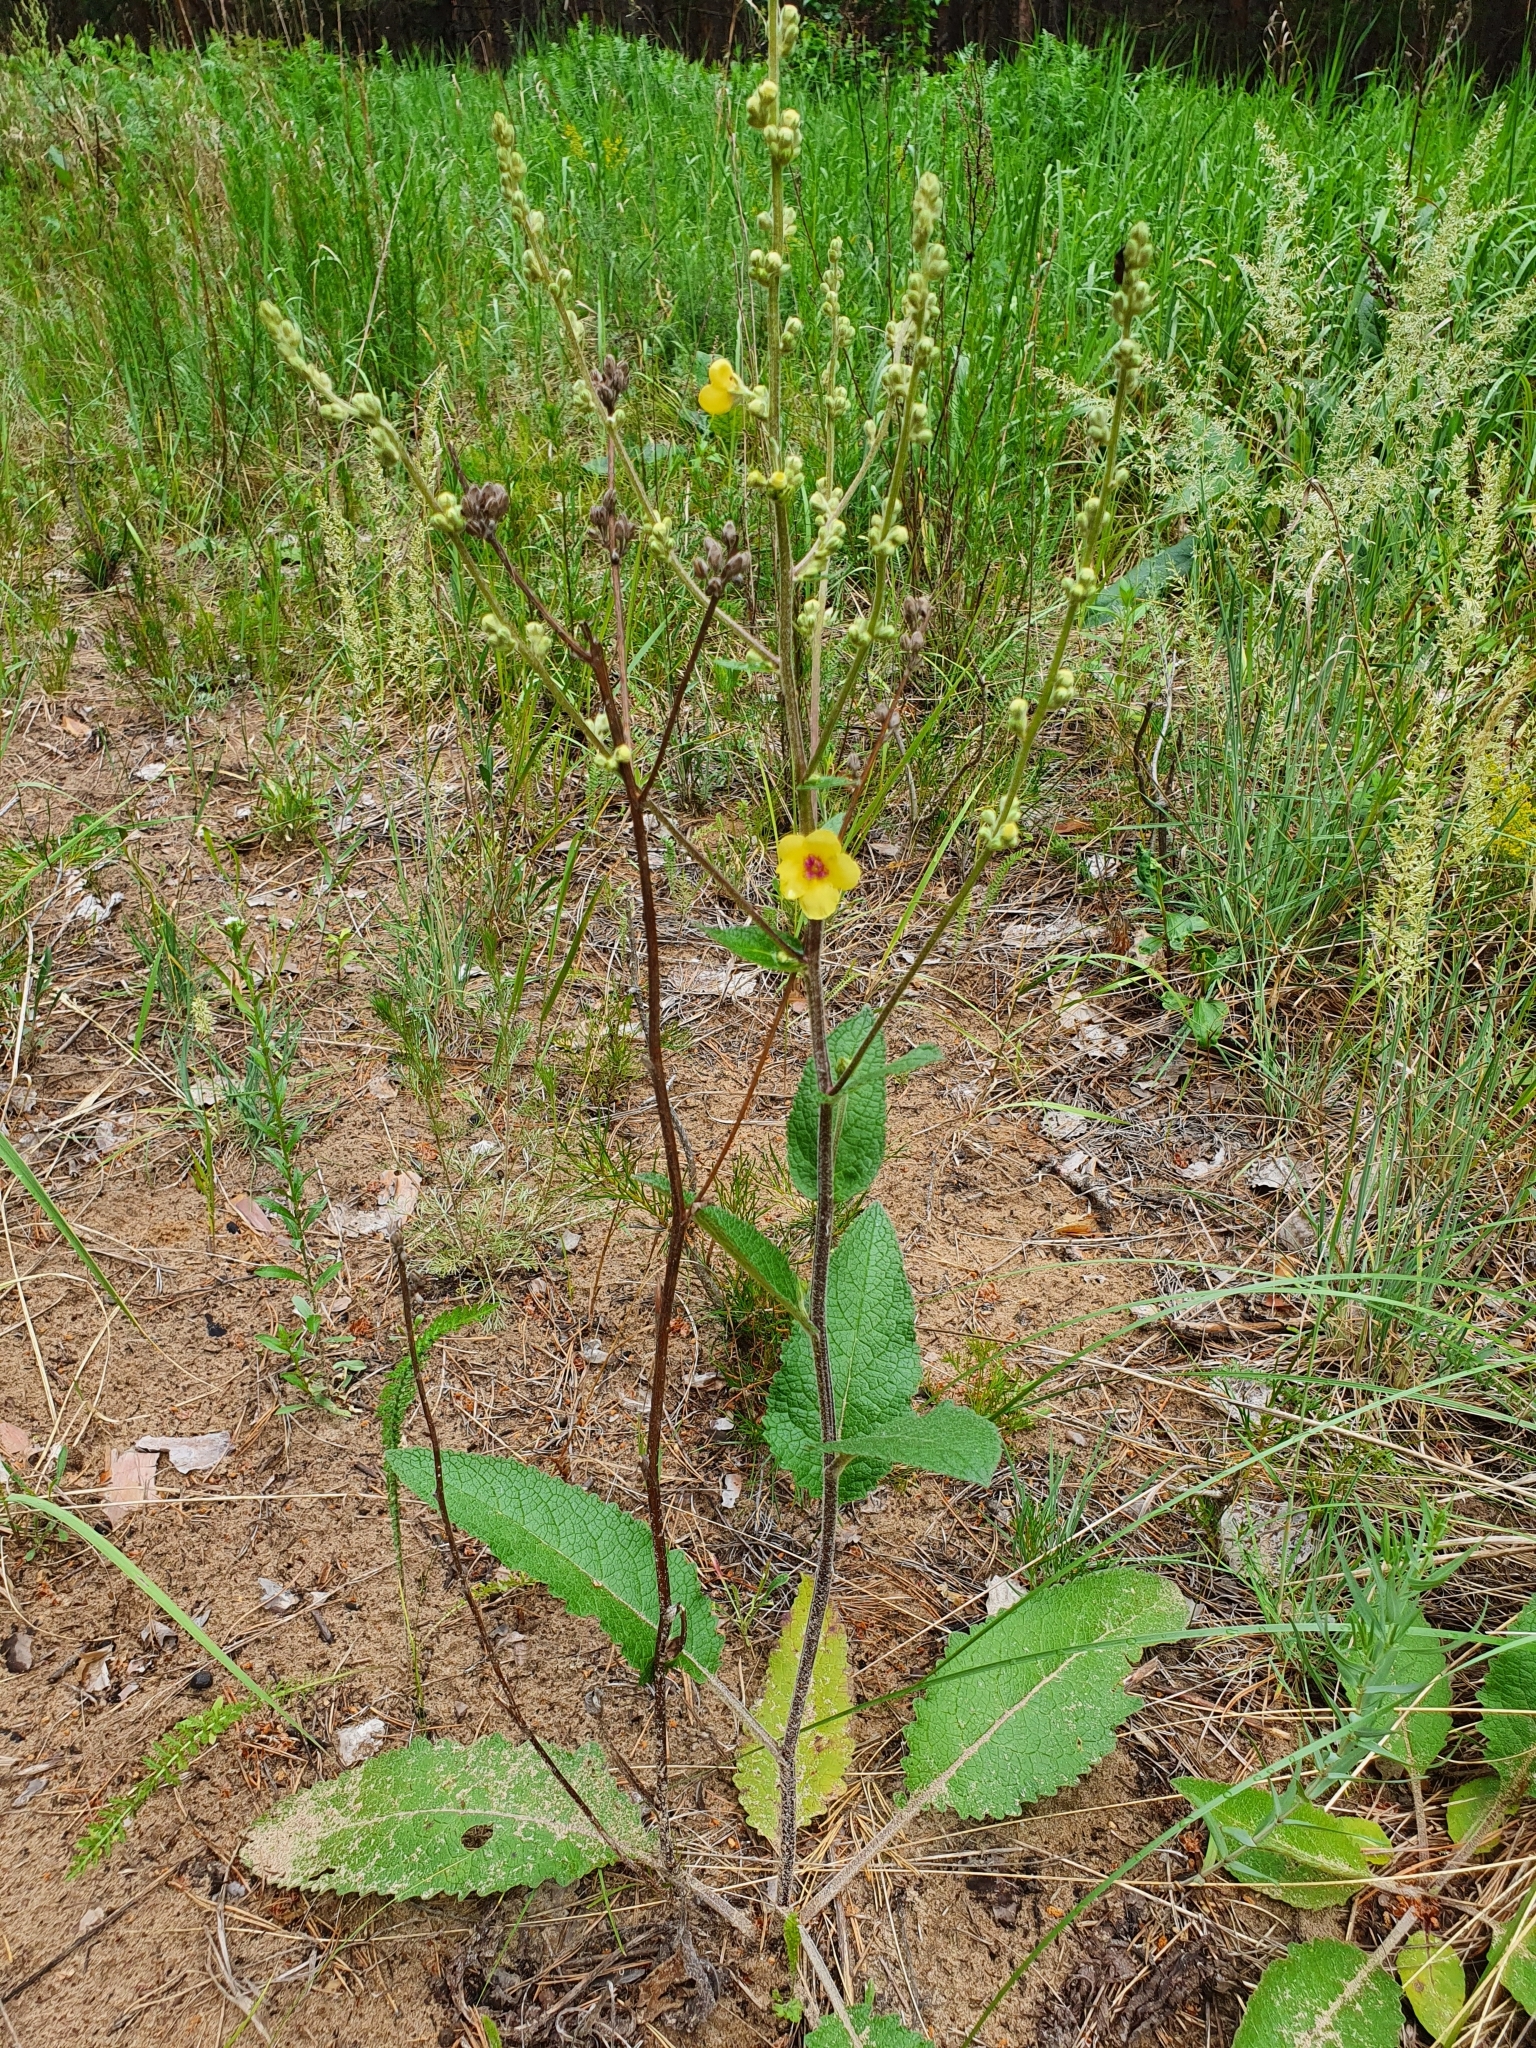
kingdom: Plantae
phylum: Tracheophyta
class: Magnoliopsida
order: Lamiales
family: Scrophulariaceae
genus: Verbascum
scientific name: Verbascum chaixii
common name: Nettle-leaved mullein
